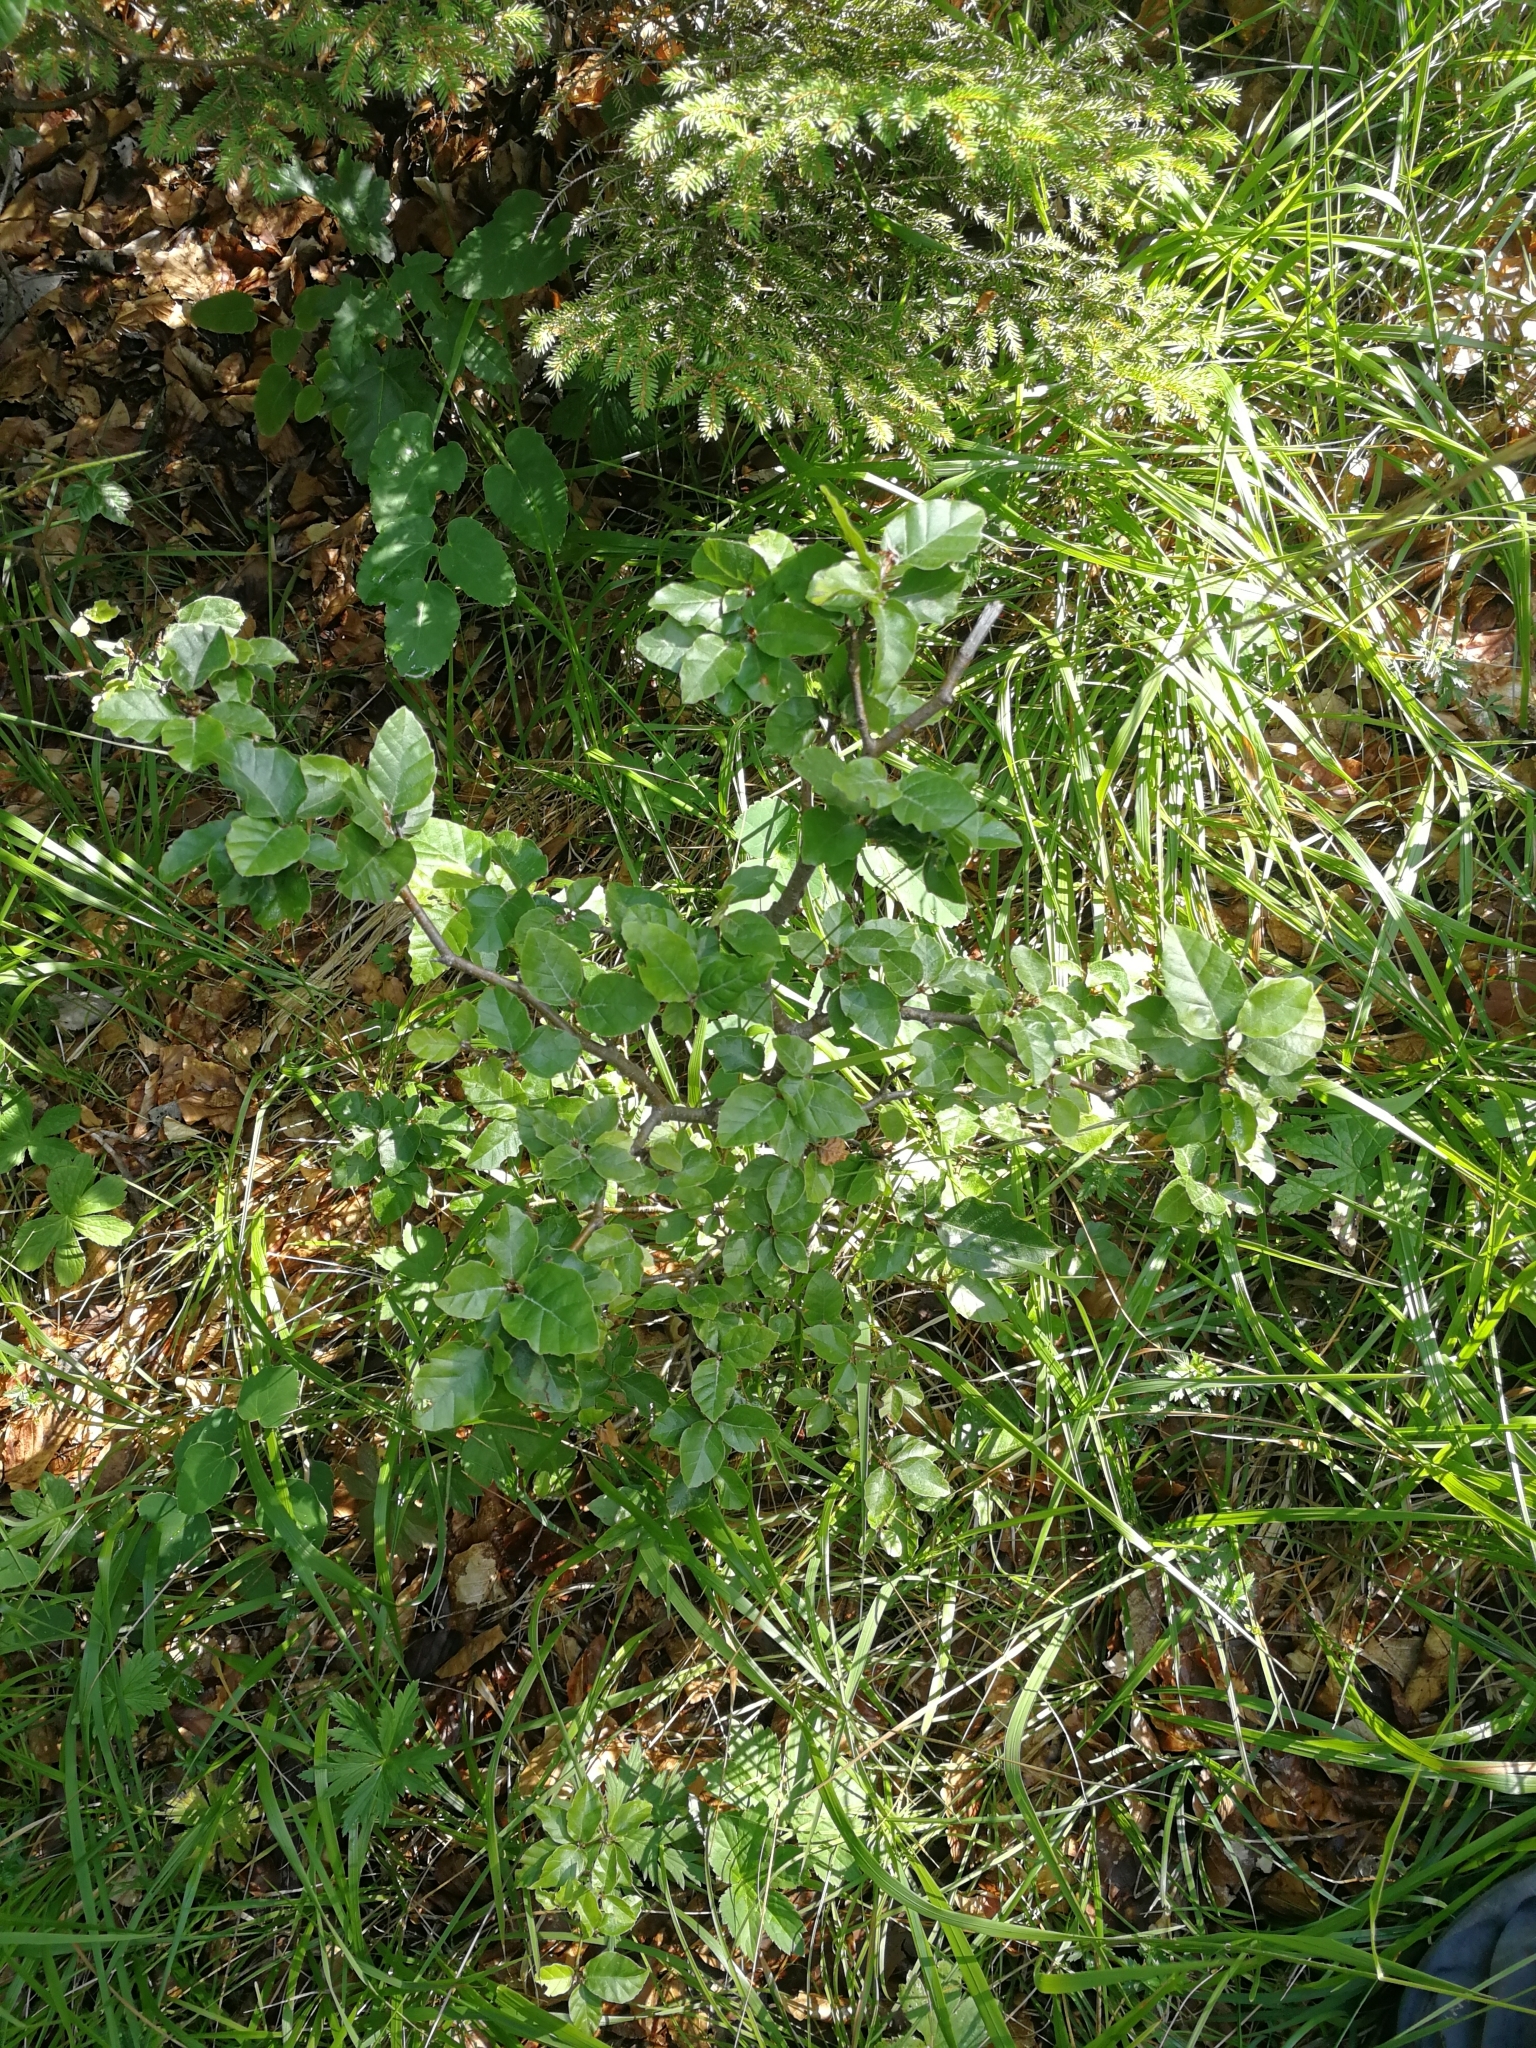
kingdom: Plantae
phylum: Tracheophyta
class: Magnoliopsida
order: Fagales
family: Fagaceae
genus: Fagus
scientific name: Fagus sylvatica
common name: Beech
